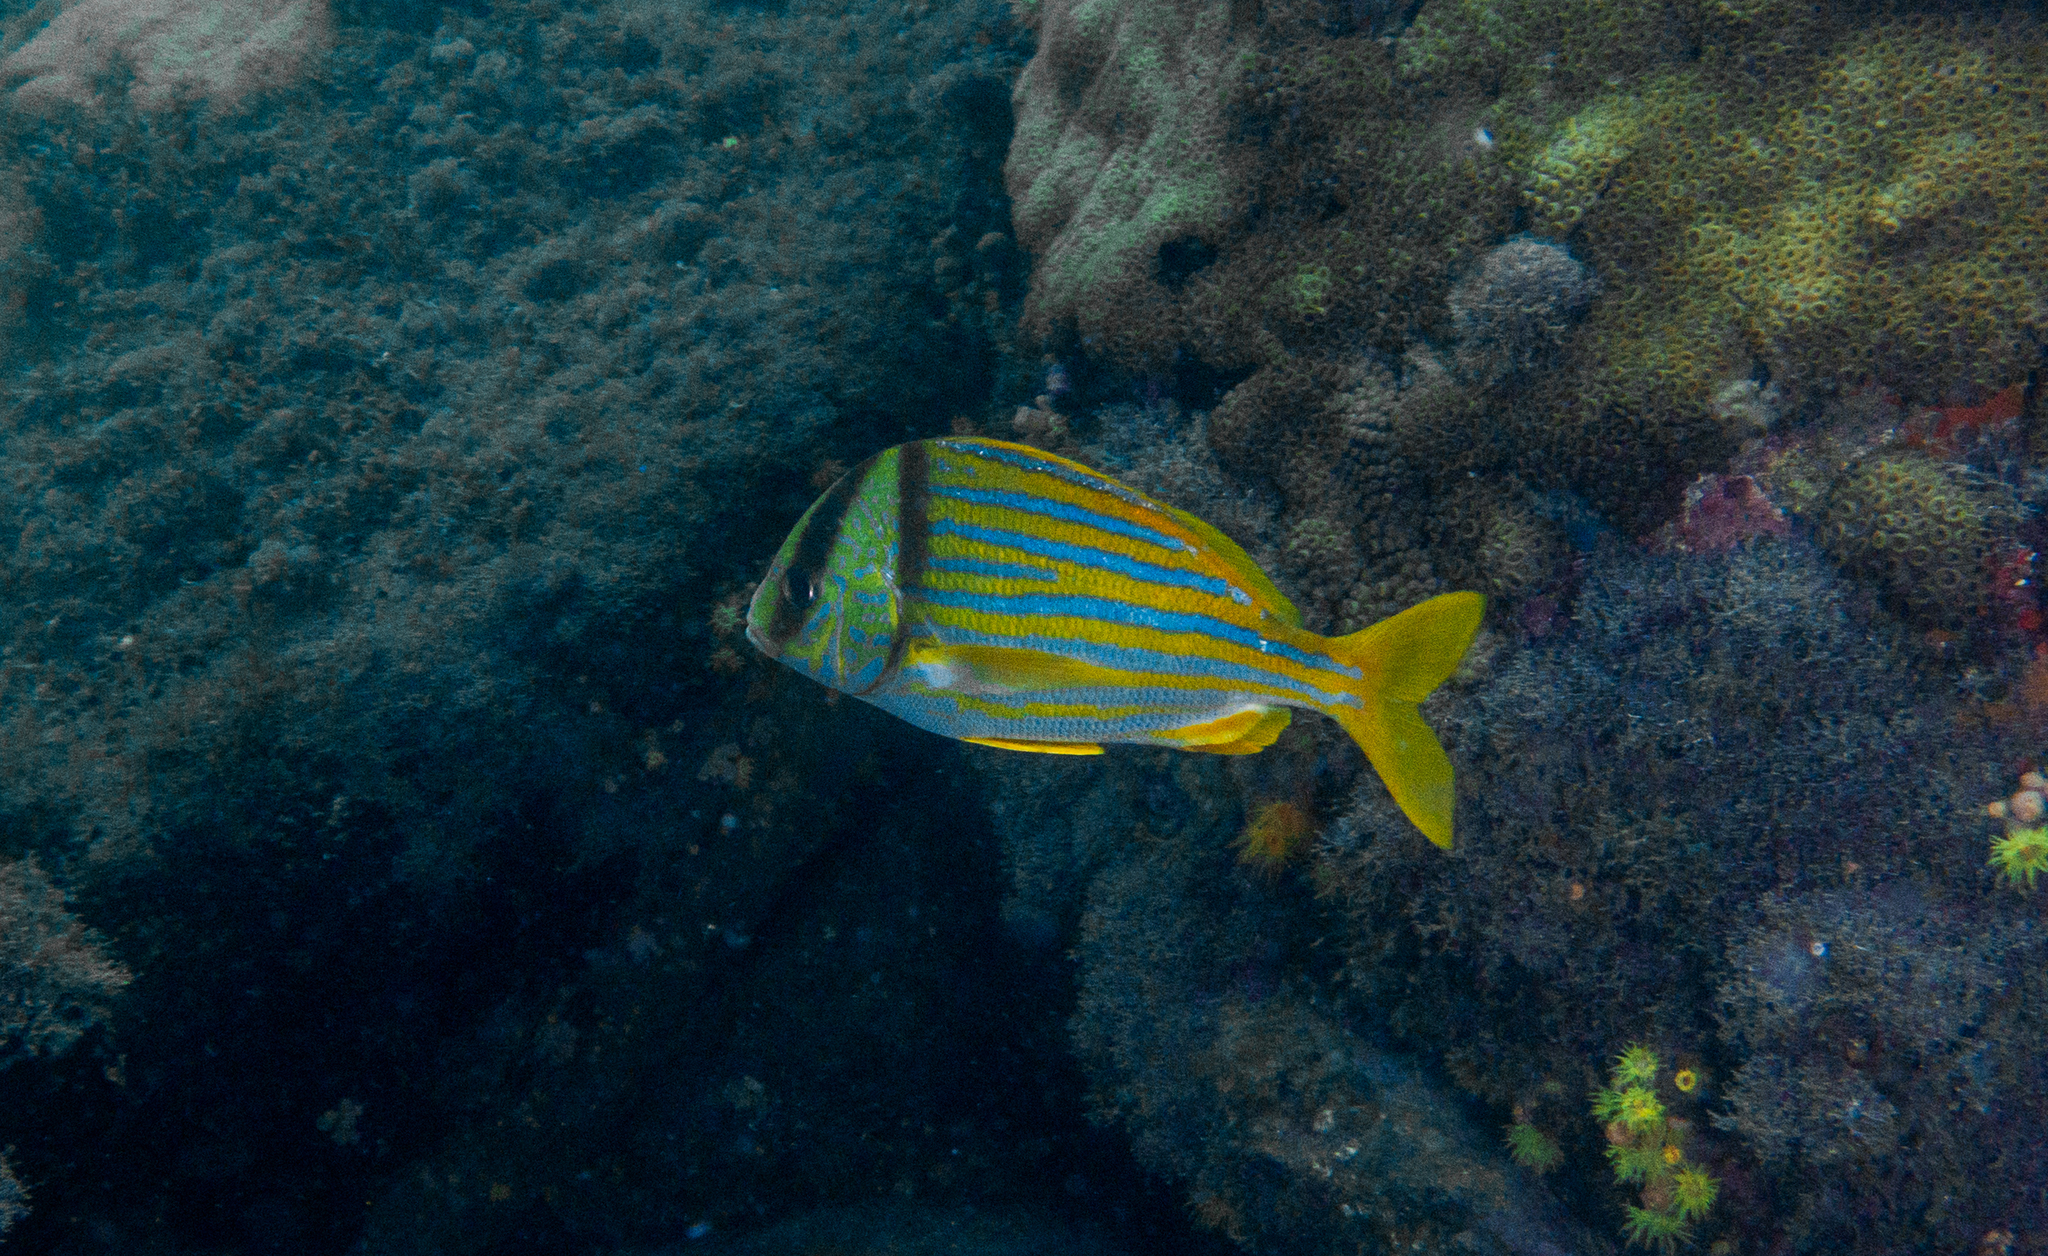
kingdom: Animalia
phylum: Chordata
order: Perciformes
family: Haemulidae
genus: Anisotremus
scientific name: Anisotremus virginicus
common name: Porkfish
